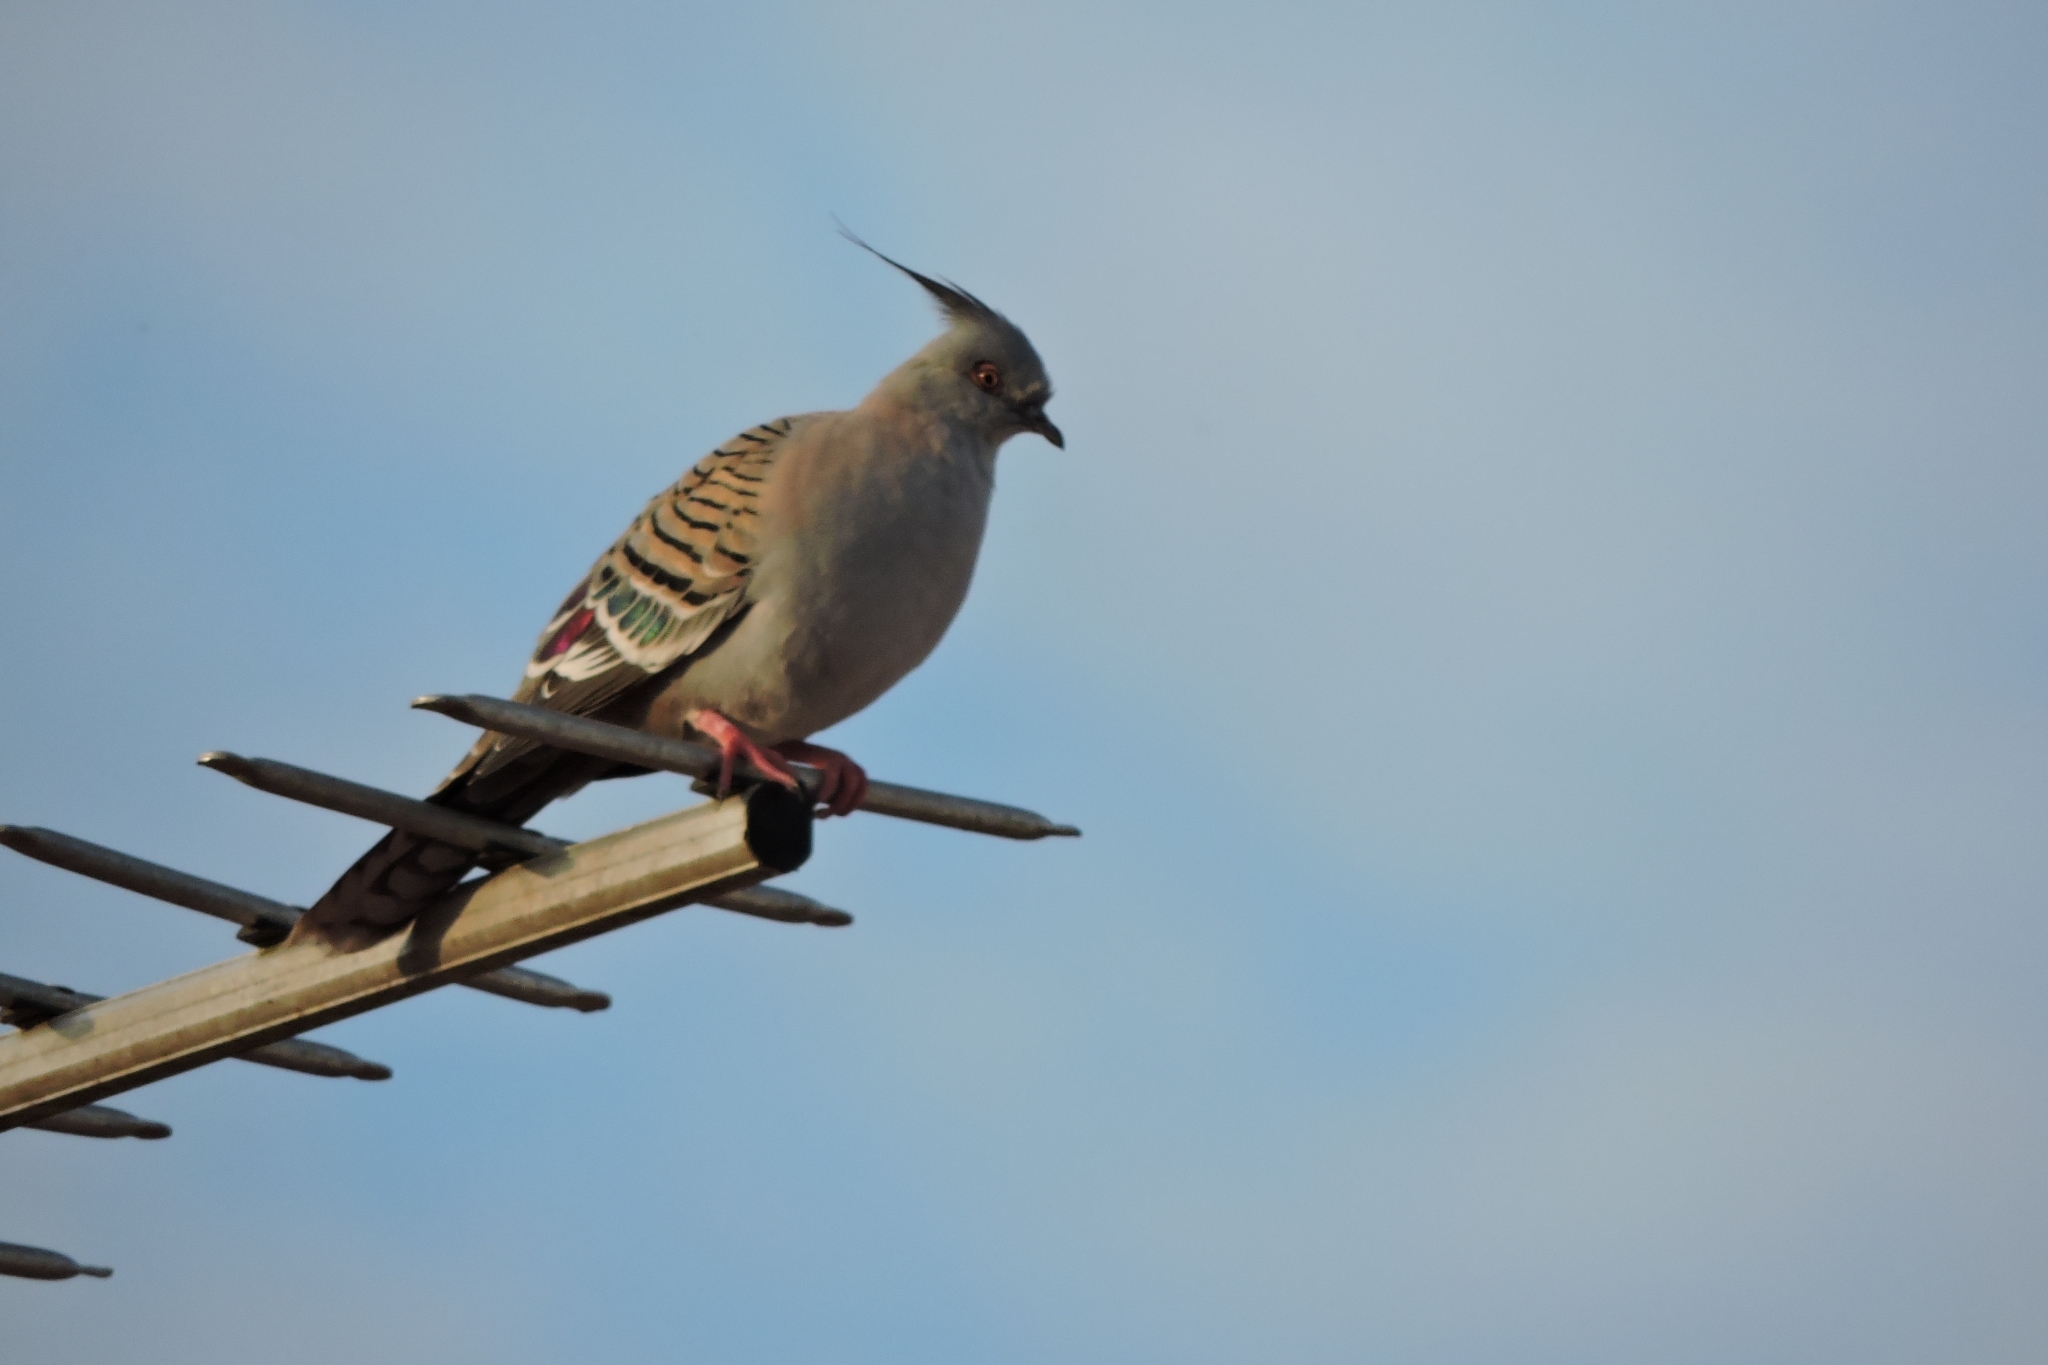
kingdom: Animalia
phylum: Chordata
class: Aves
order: Columbiformes
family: Columbidae
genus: Ocyphaps
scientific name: Ocyphaps lophotes
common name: Crested pigeon
